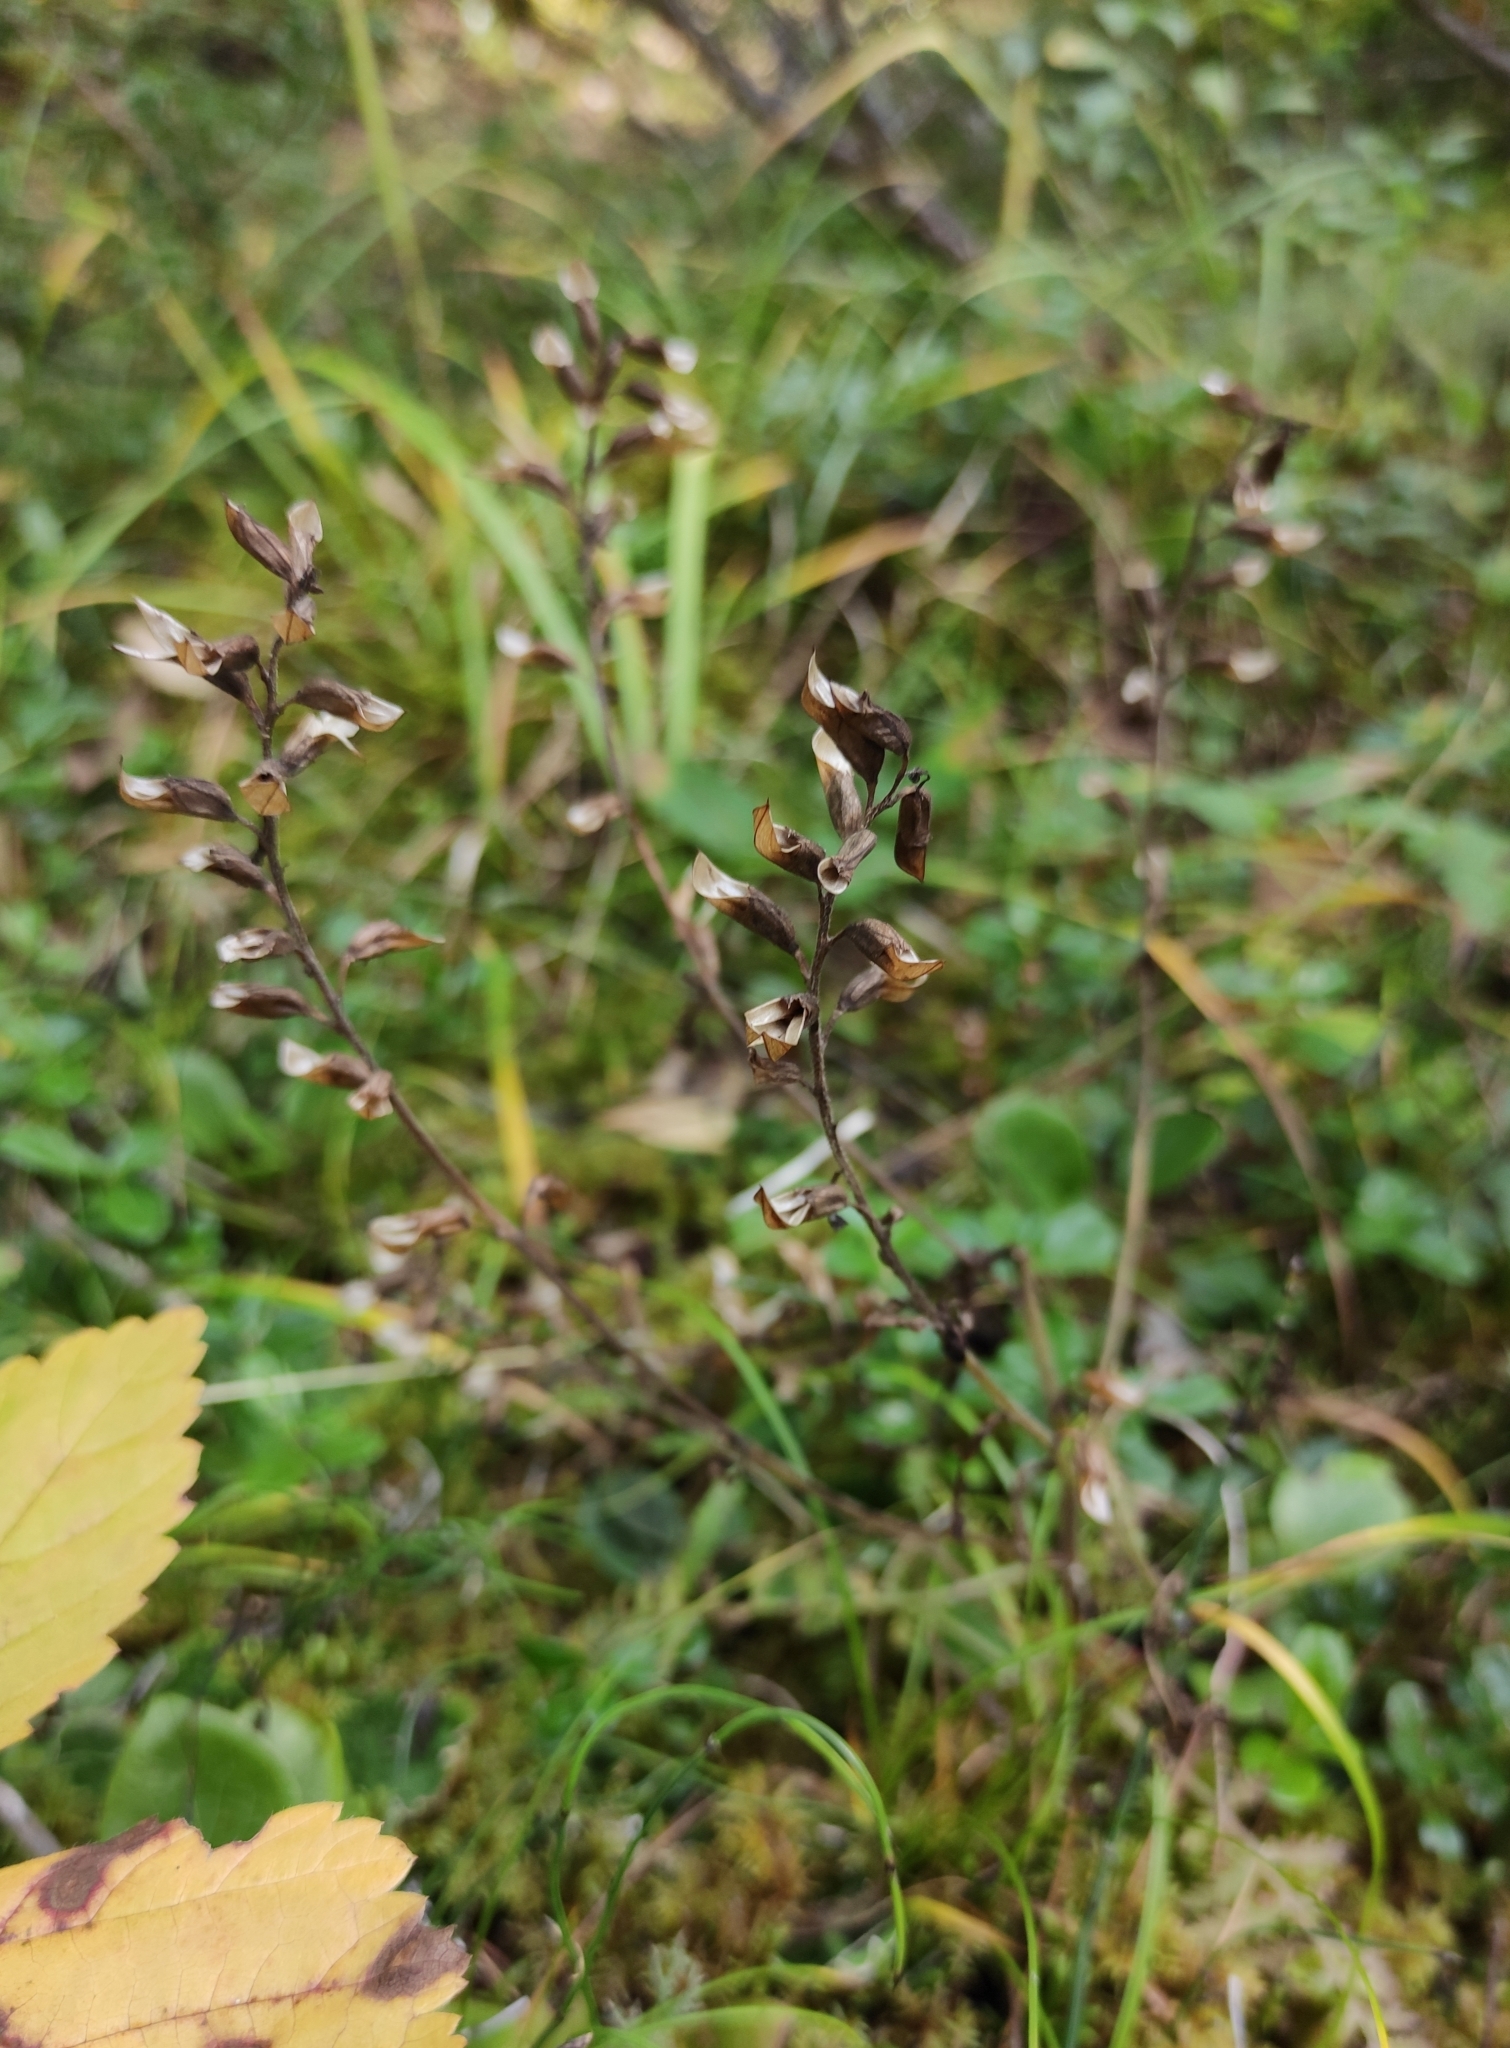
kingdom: Plantae
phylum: Tracheophyta
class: Magnoliopsida
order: Lamiales
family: Orobanchaceae
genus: Pedicularis
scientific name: Pedicularis labradorica
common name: Labrador lousewort
